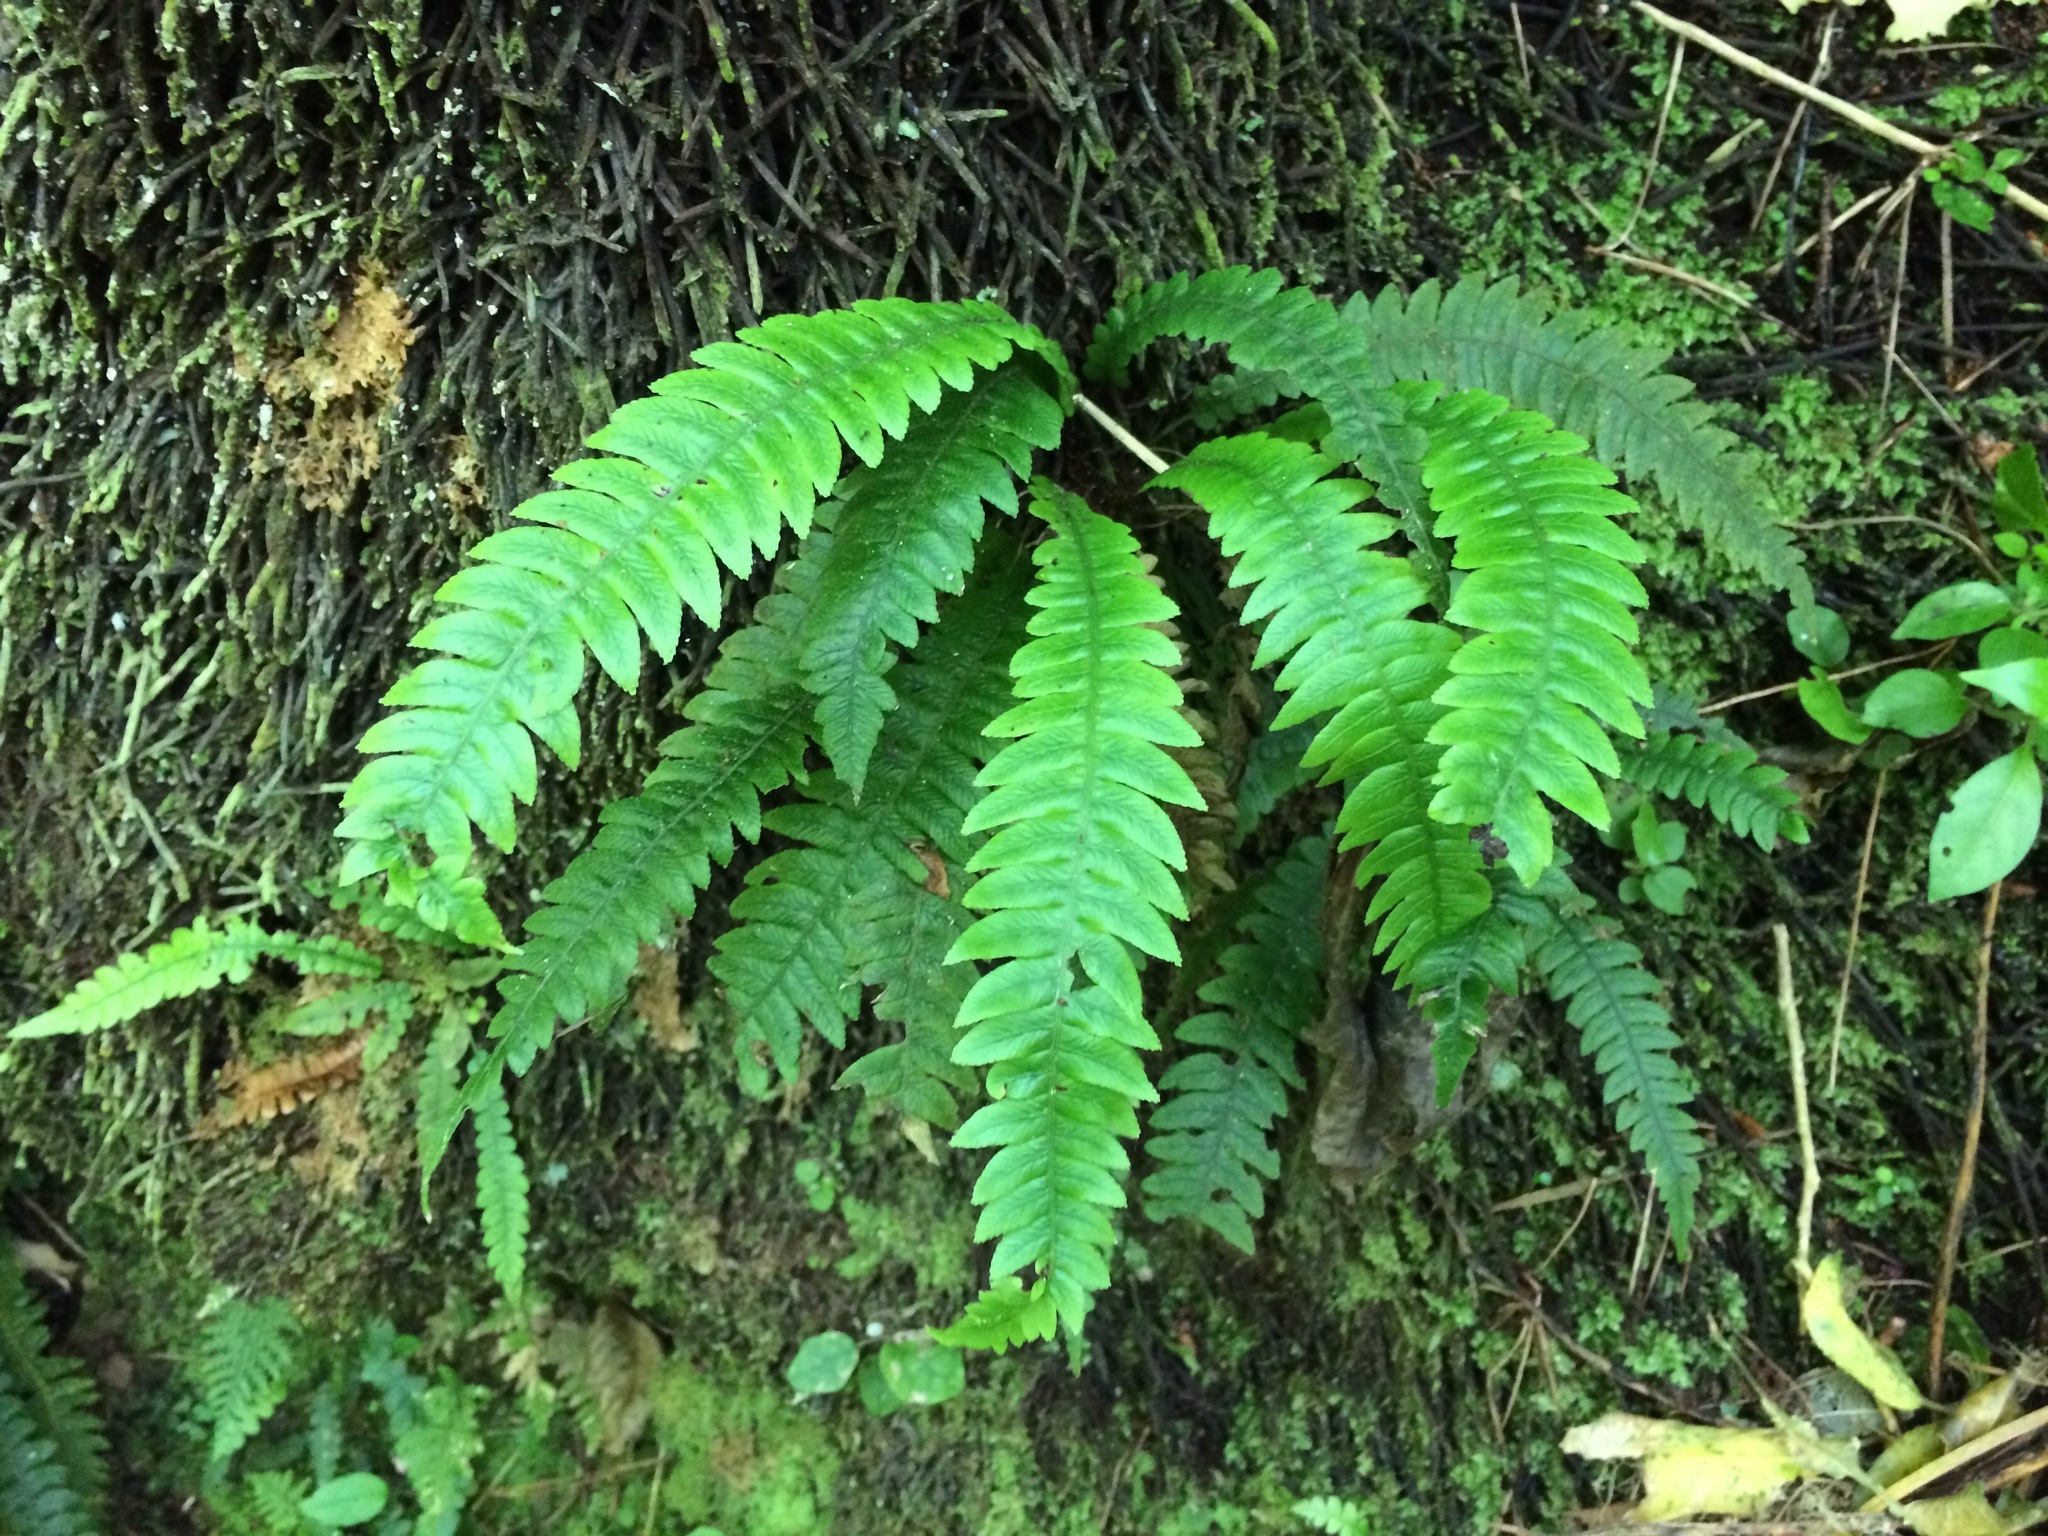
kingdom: Plantae
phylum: Tracheophyta
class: Polypodiopsida
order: Polypodiales
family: Blechnaceae
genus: Austroblechnum
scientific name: Austroblechnum lanceolatum
